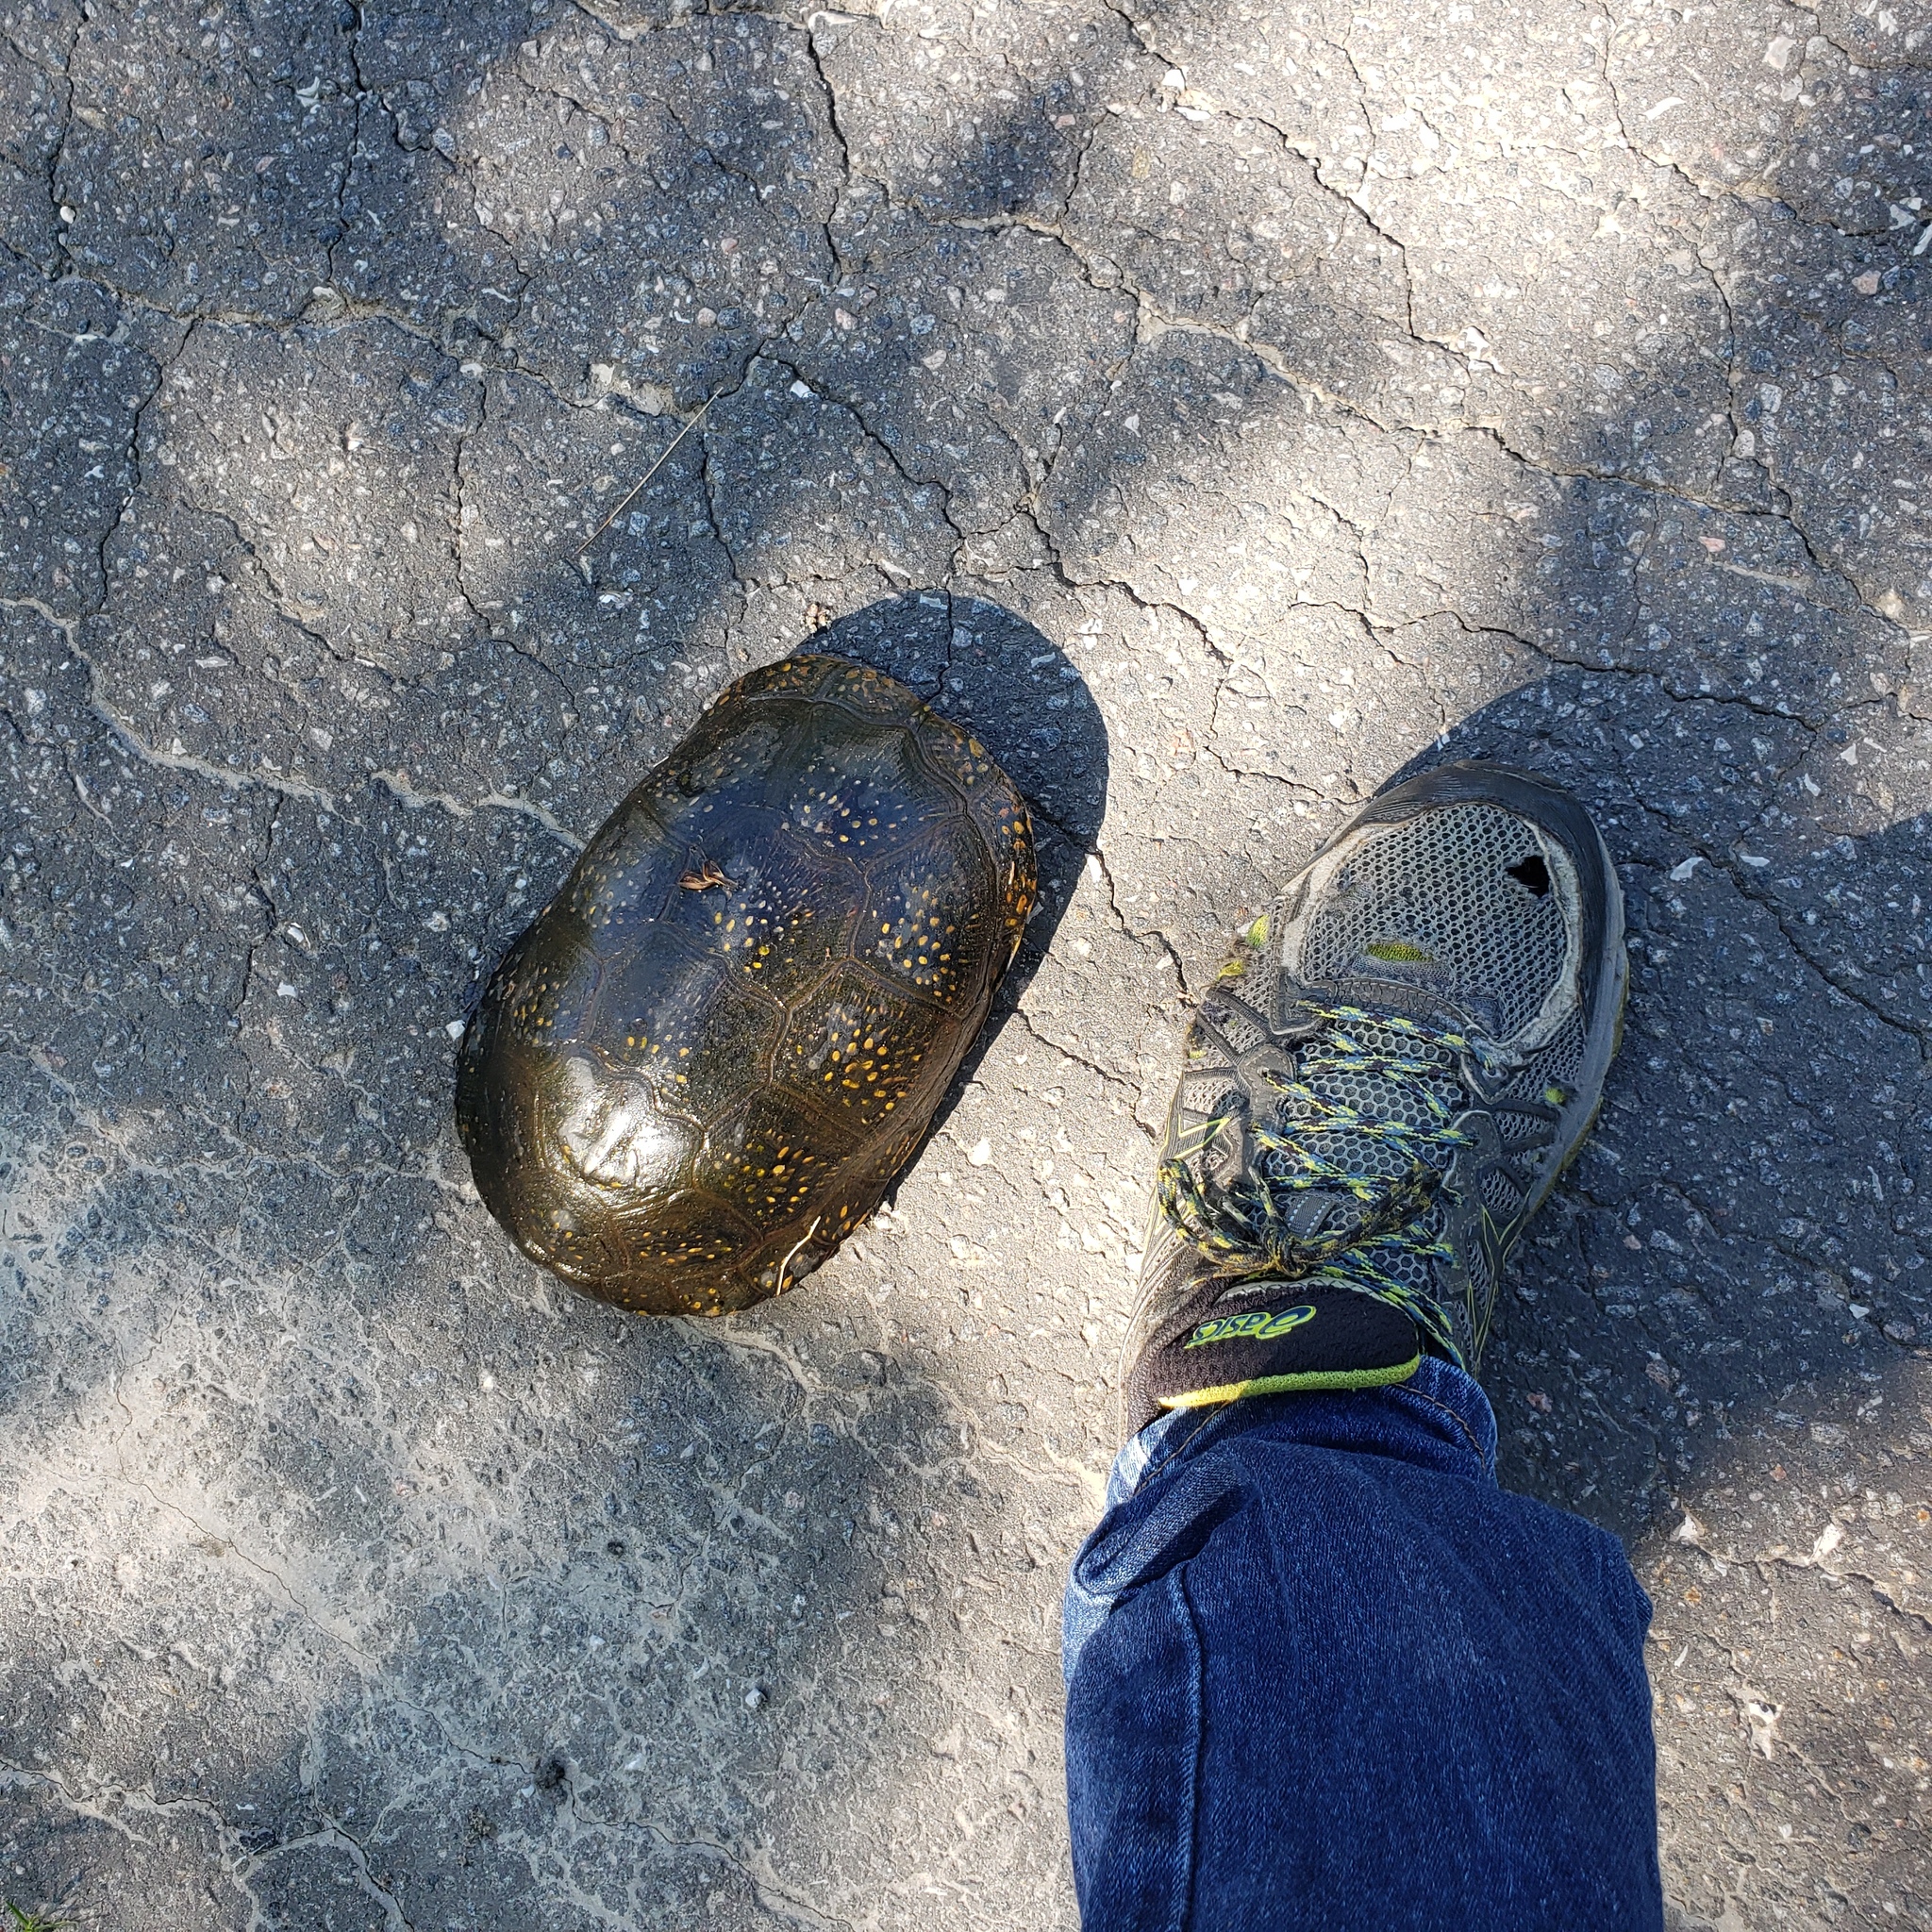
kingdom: Animalia
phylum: Chordata
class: Testudines
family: Emydidae
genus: Emys
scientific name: Emys blandingii
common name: Blanding's turtle
